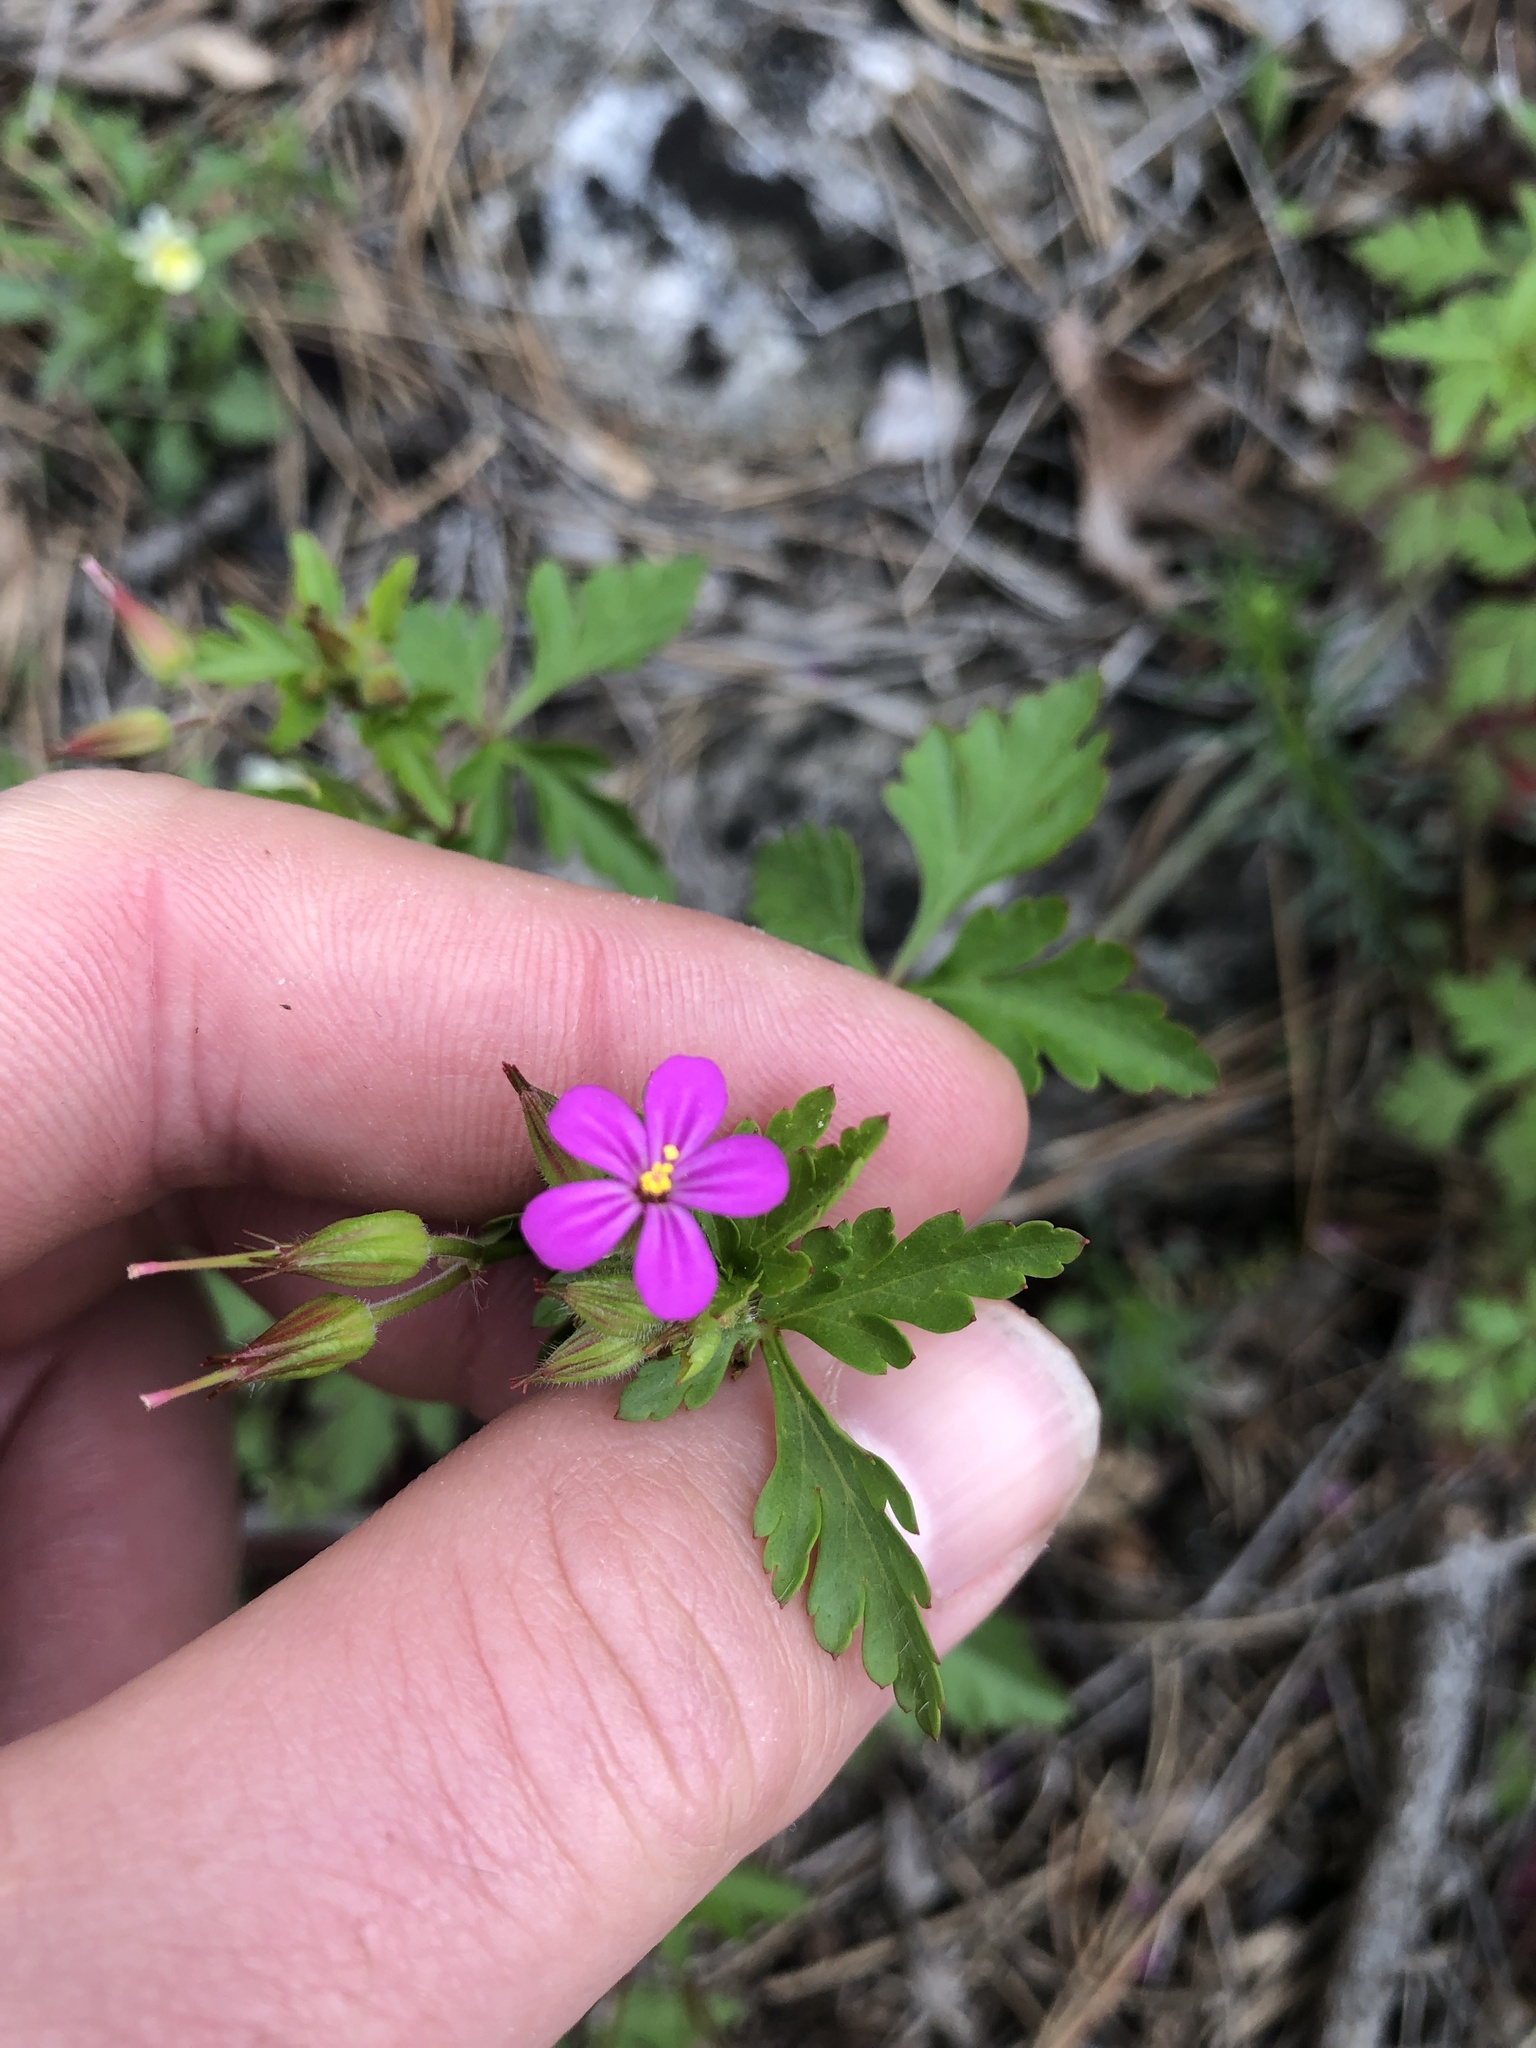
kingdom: Plantae
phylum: Tracheophyta
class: Magnoliopsida
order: Geraniales
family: Geraniaceae
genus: Geranium
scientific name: Geranium purpureum
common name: Little-robin
